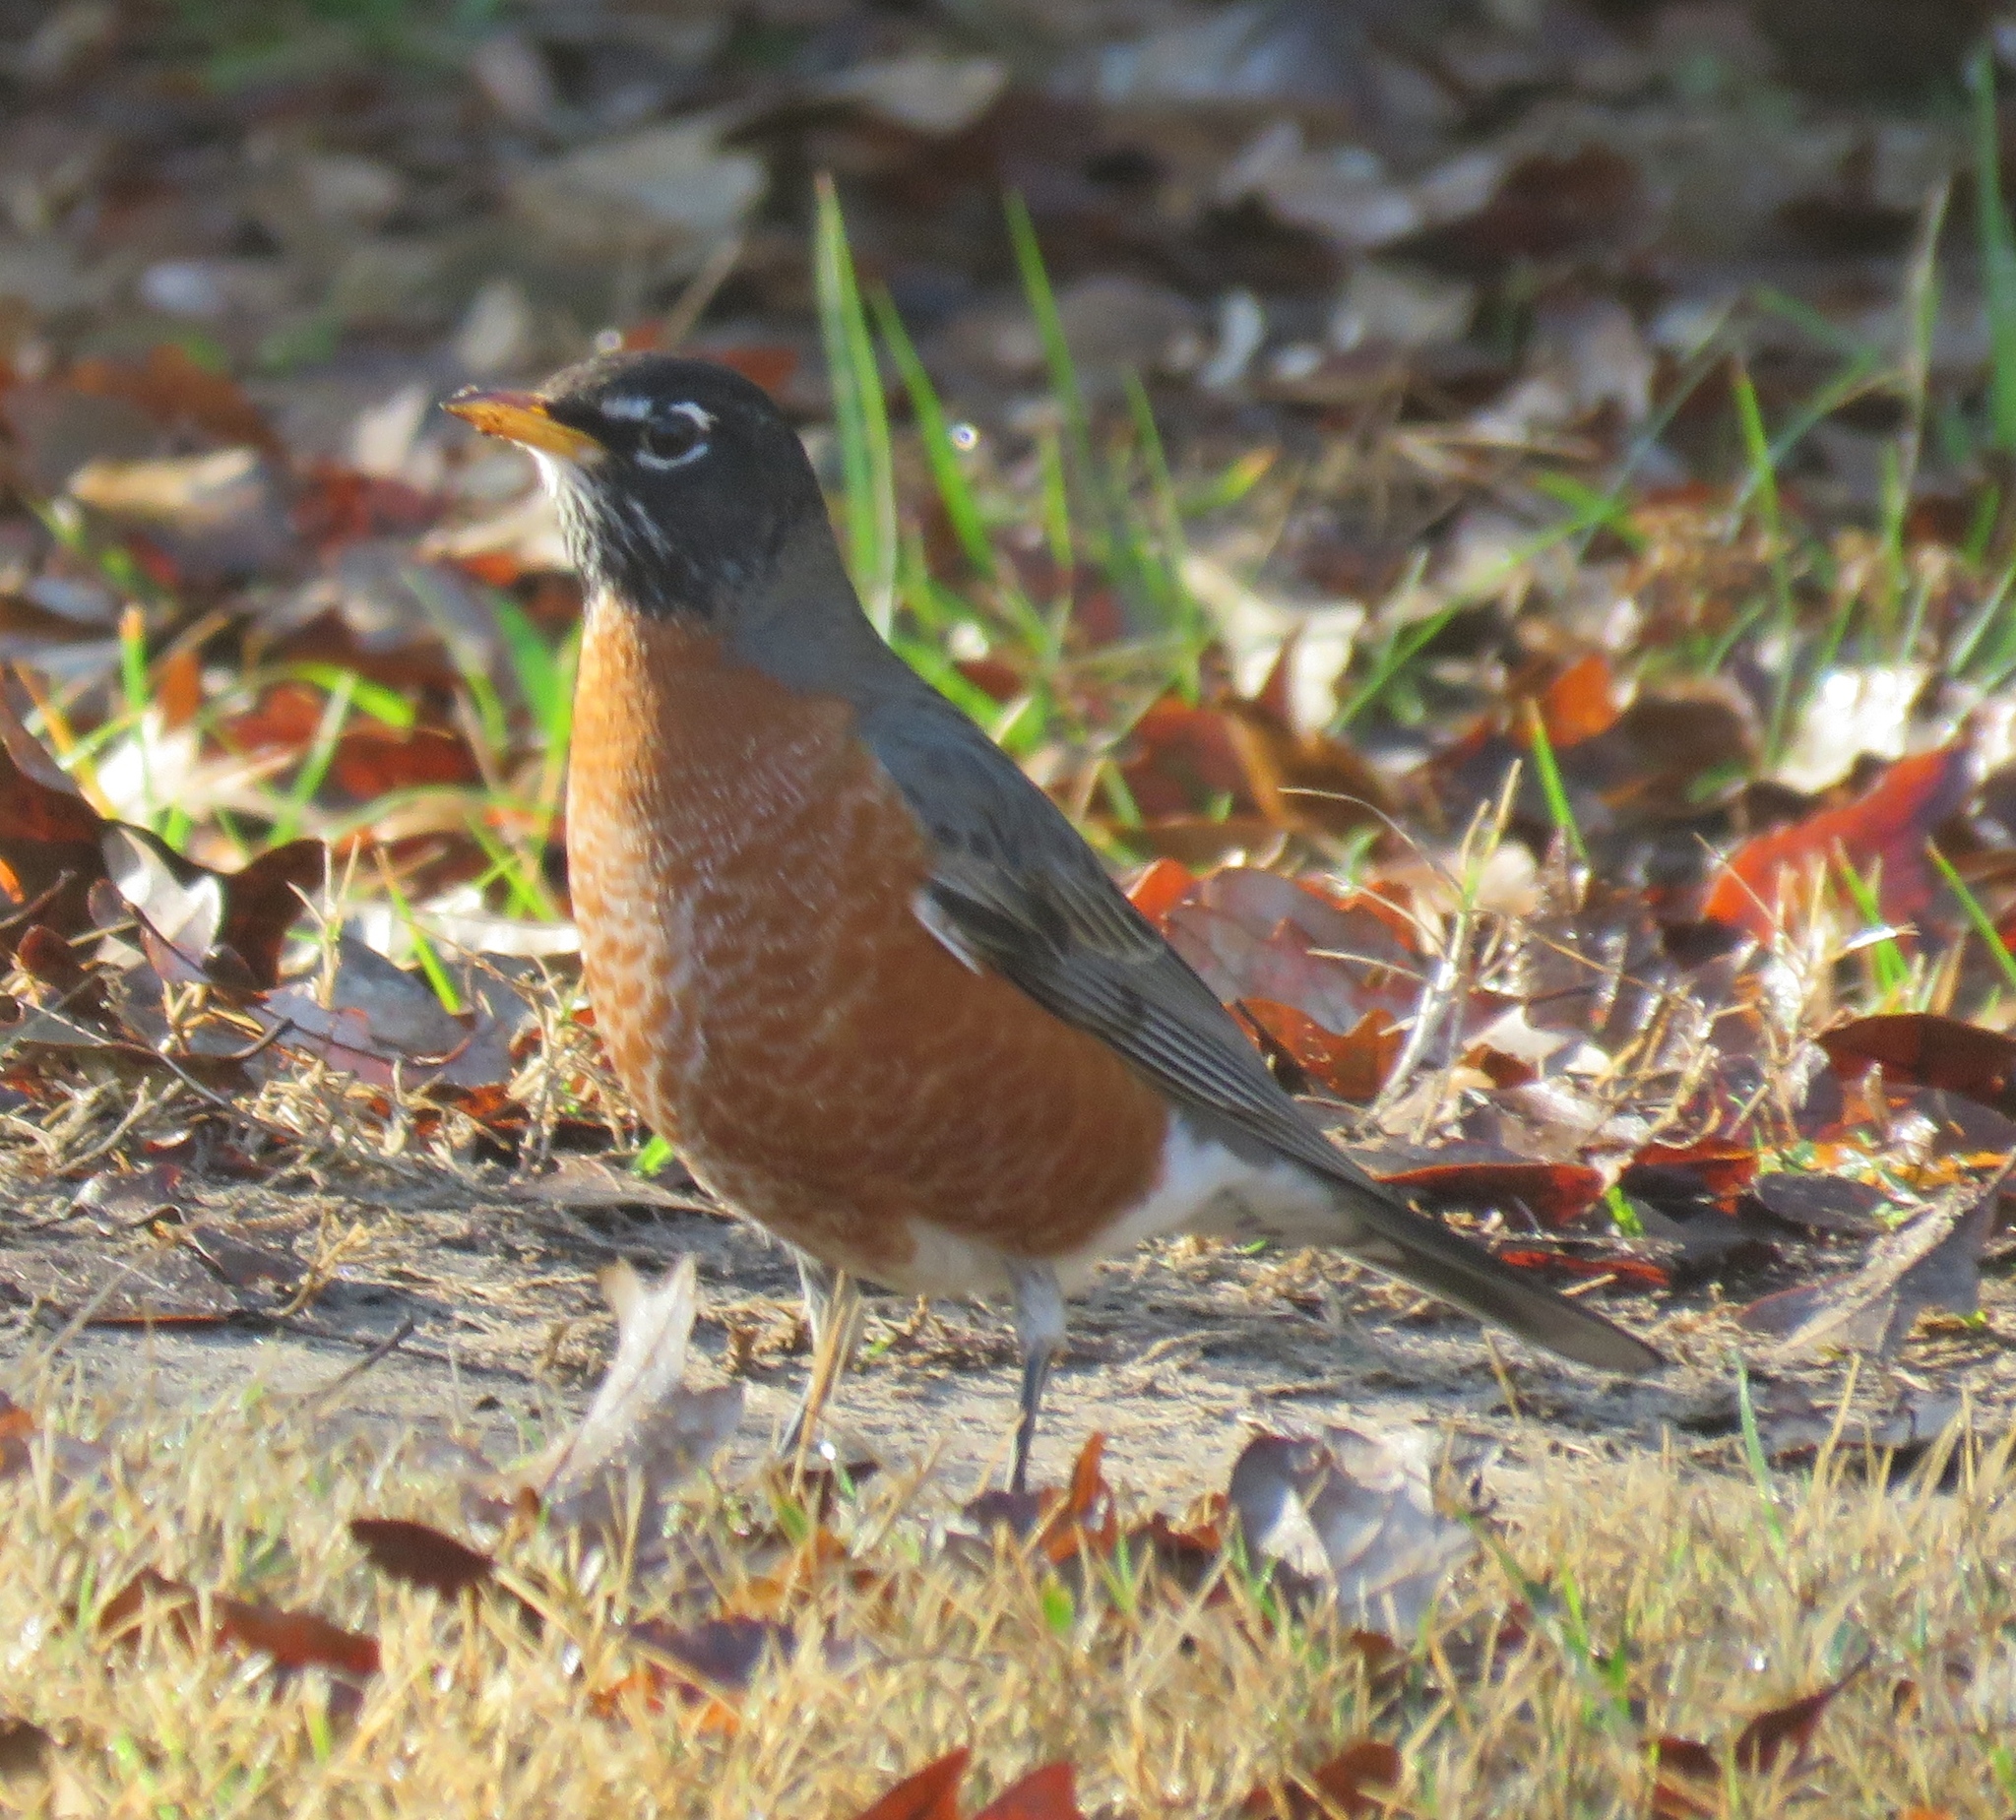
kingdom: Animalia
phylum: Chordata
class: Aves
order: Passeriformes
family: Turdidae
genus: Turdus
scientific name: Turdus migratorius
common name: American robin
